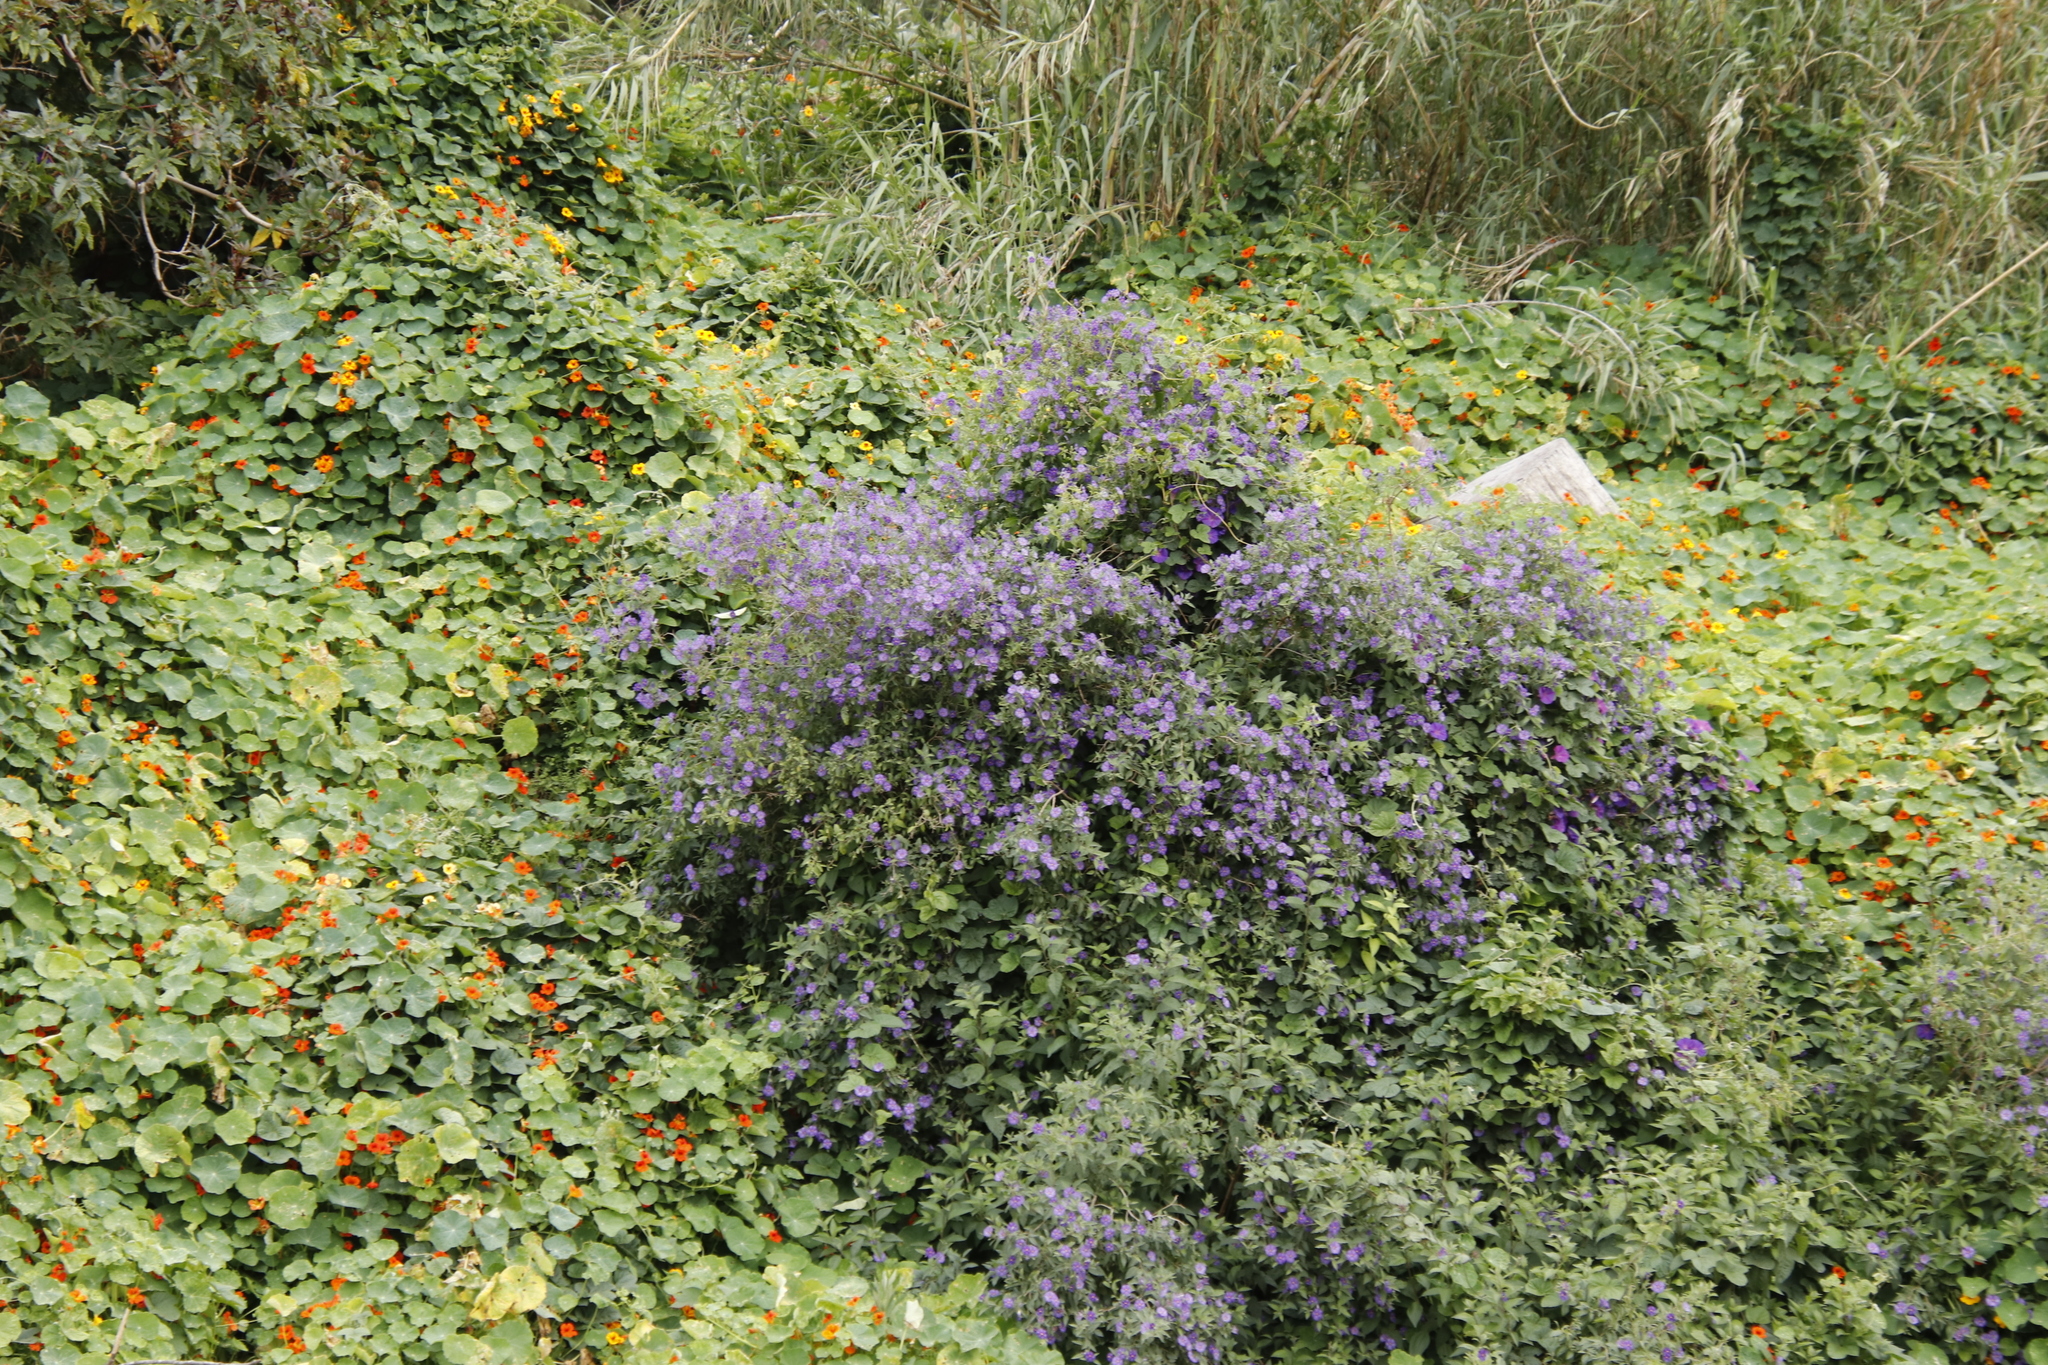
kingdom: Plantae
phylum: Tracheophyta
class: Magnoliopsida
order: Solanales
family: Solanaceae
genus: Lycianthes
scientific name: Lycianthes rantonnetii
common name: Blue potatobush
